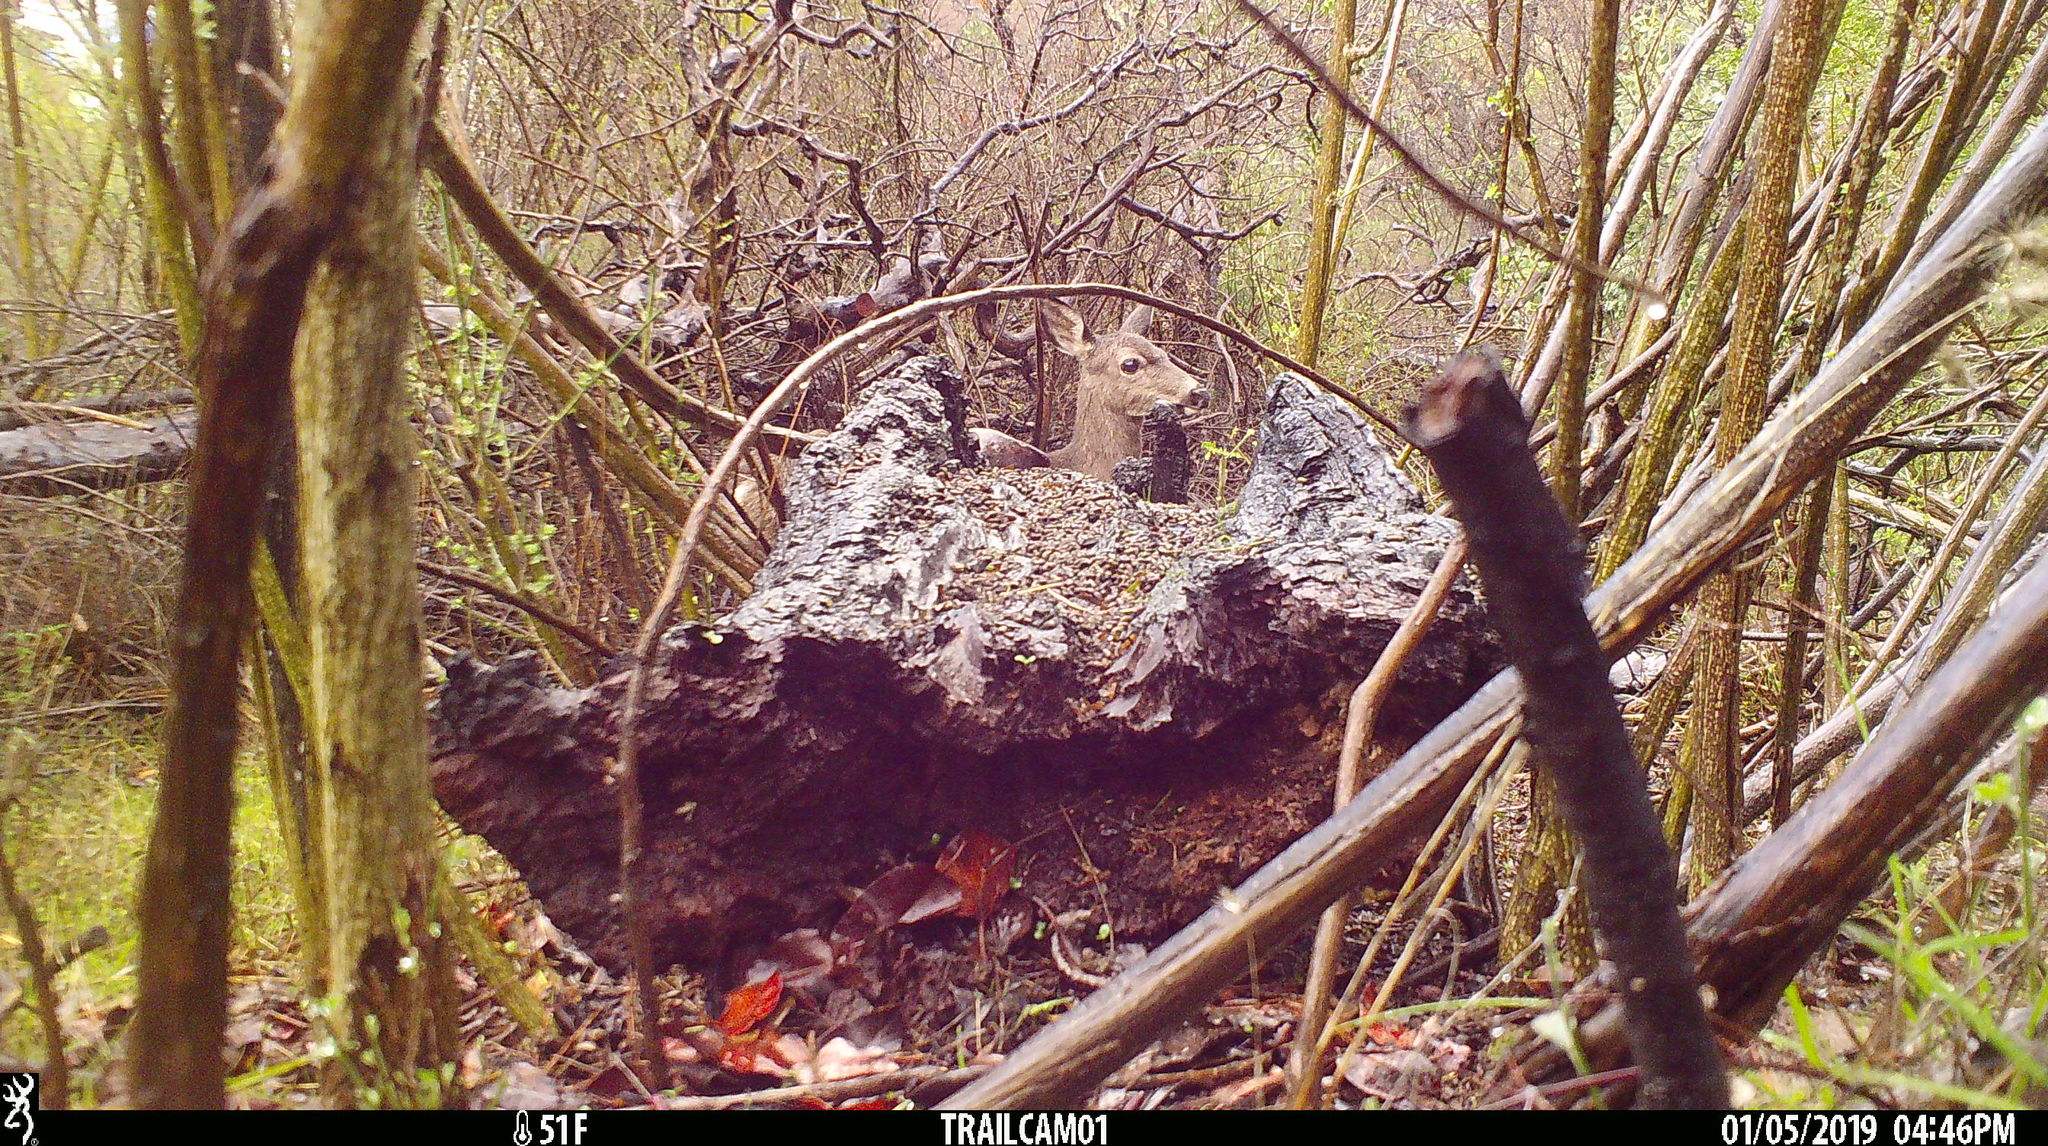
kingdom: Animalia
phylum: Chordata
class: Mammalia
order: Artiodactyla
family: Cervidae
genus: Odocoileus
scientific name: Odocoileus hemionus
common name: Mule deer
